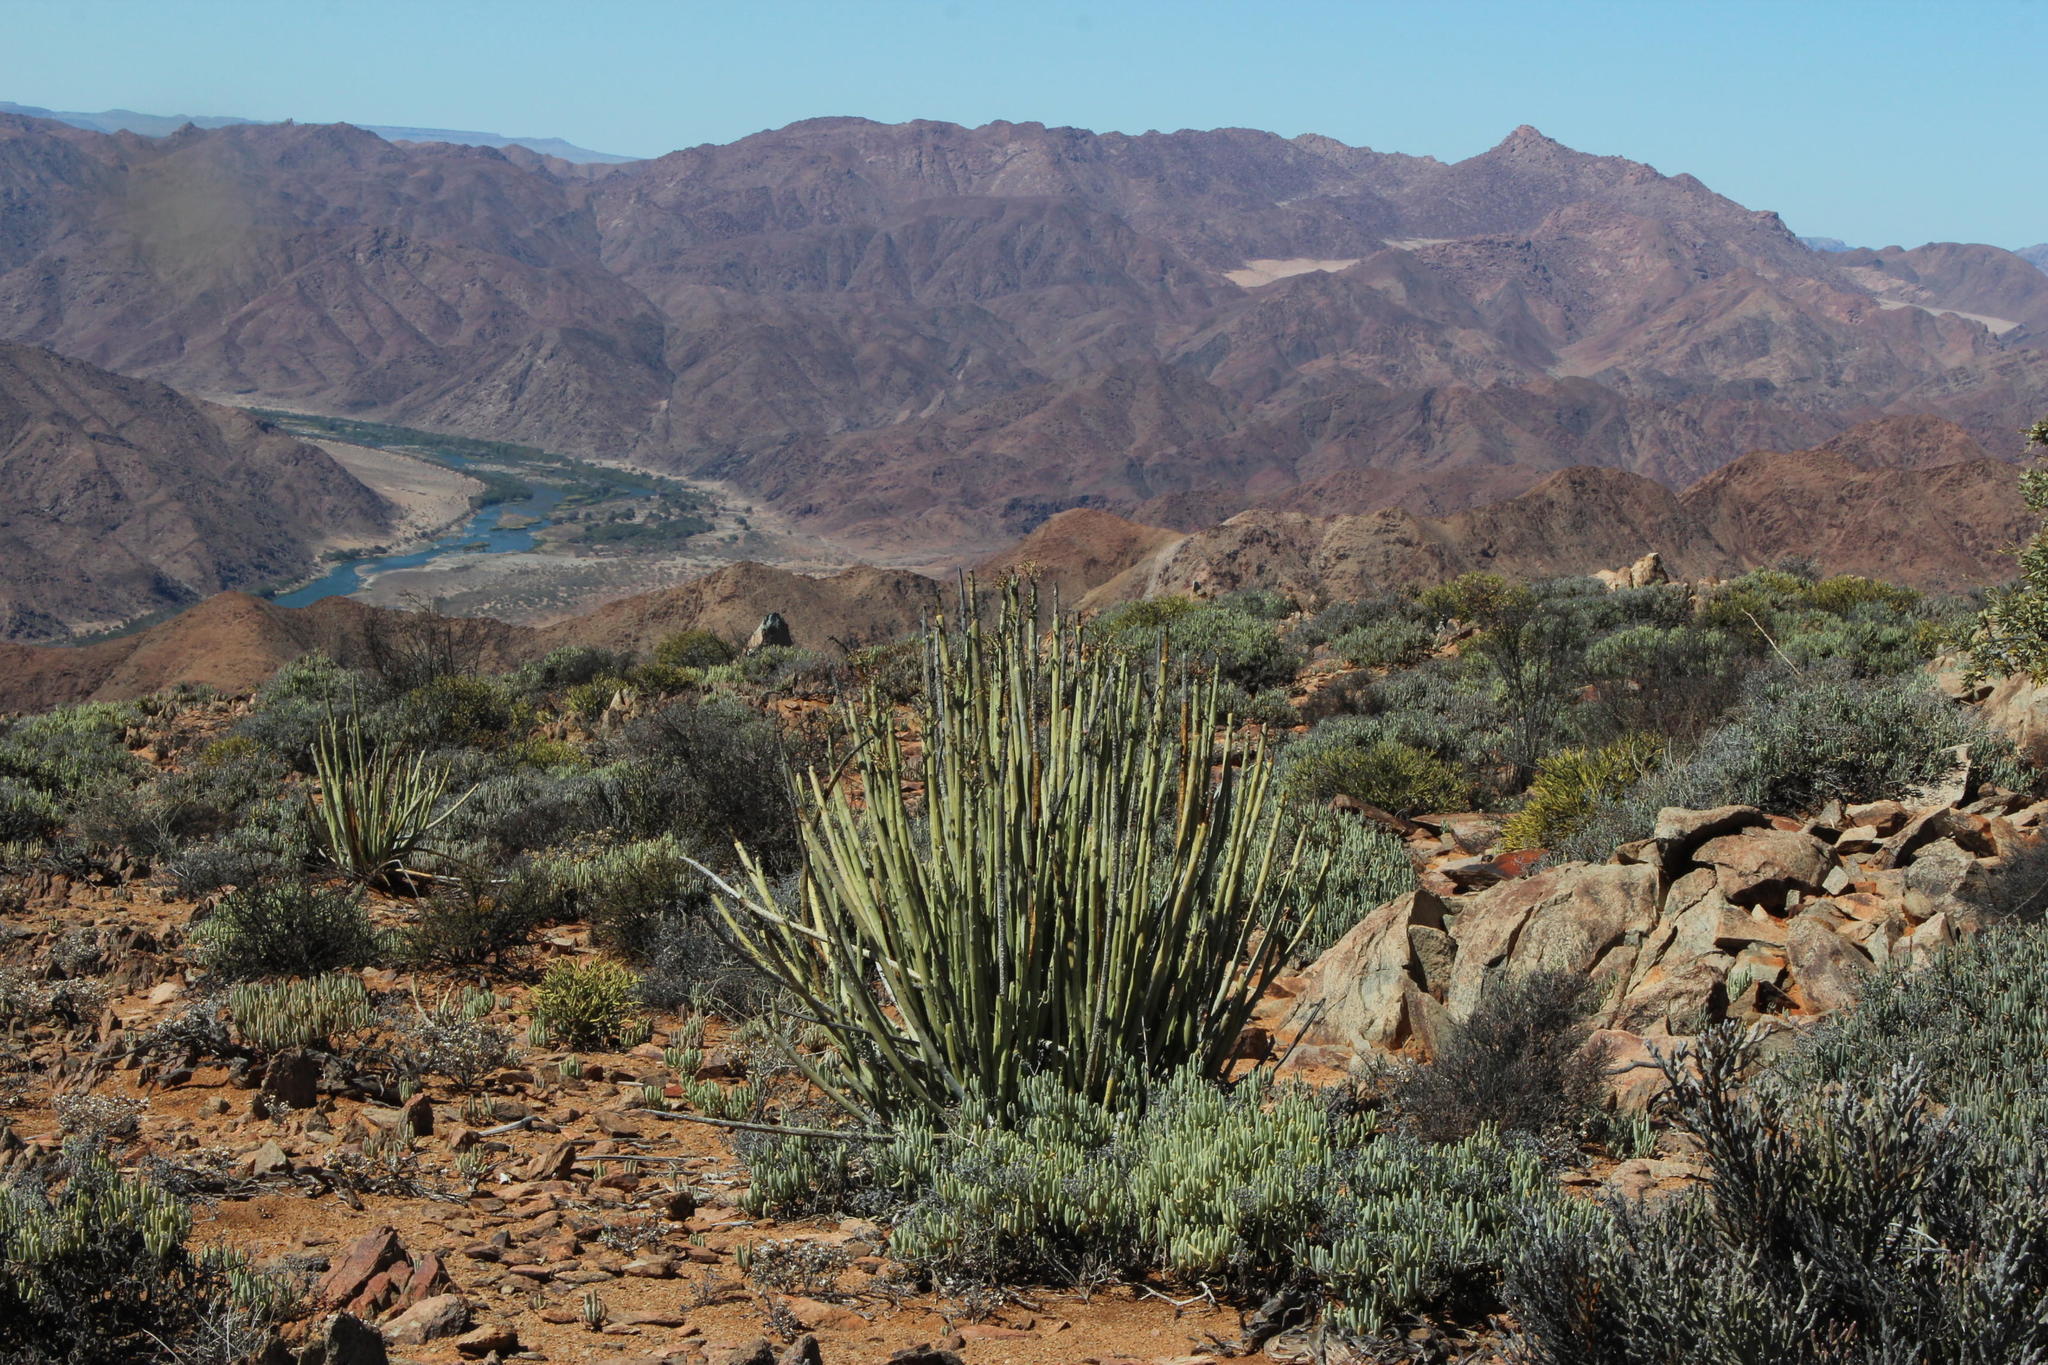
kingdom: Plantae
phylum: Tracheophyta
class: Magnoliopsida
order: Malpighiales
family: Euphorbiaceae
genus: Euphorbia
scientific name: Euphorbia dregeana
